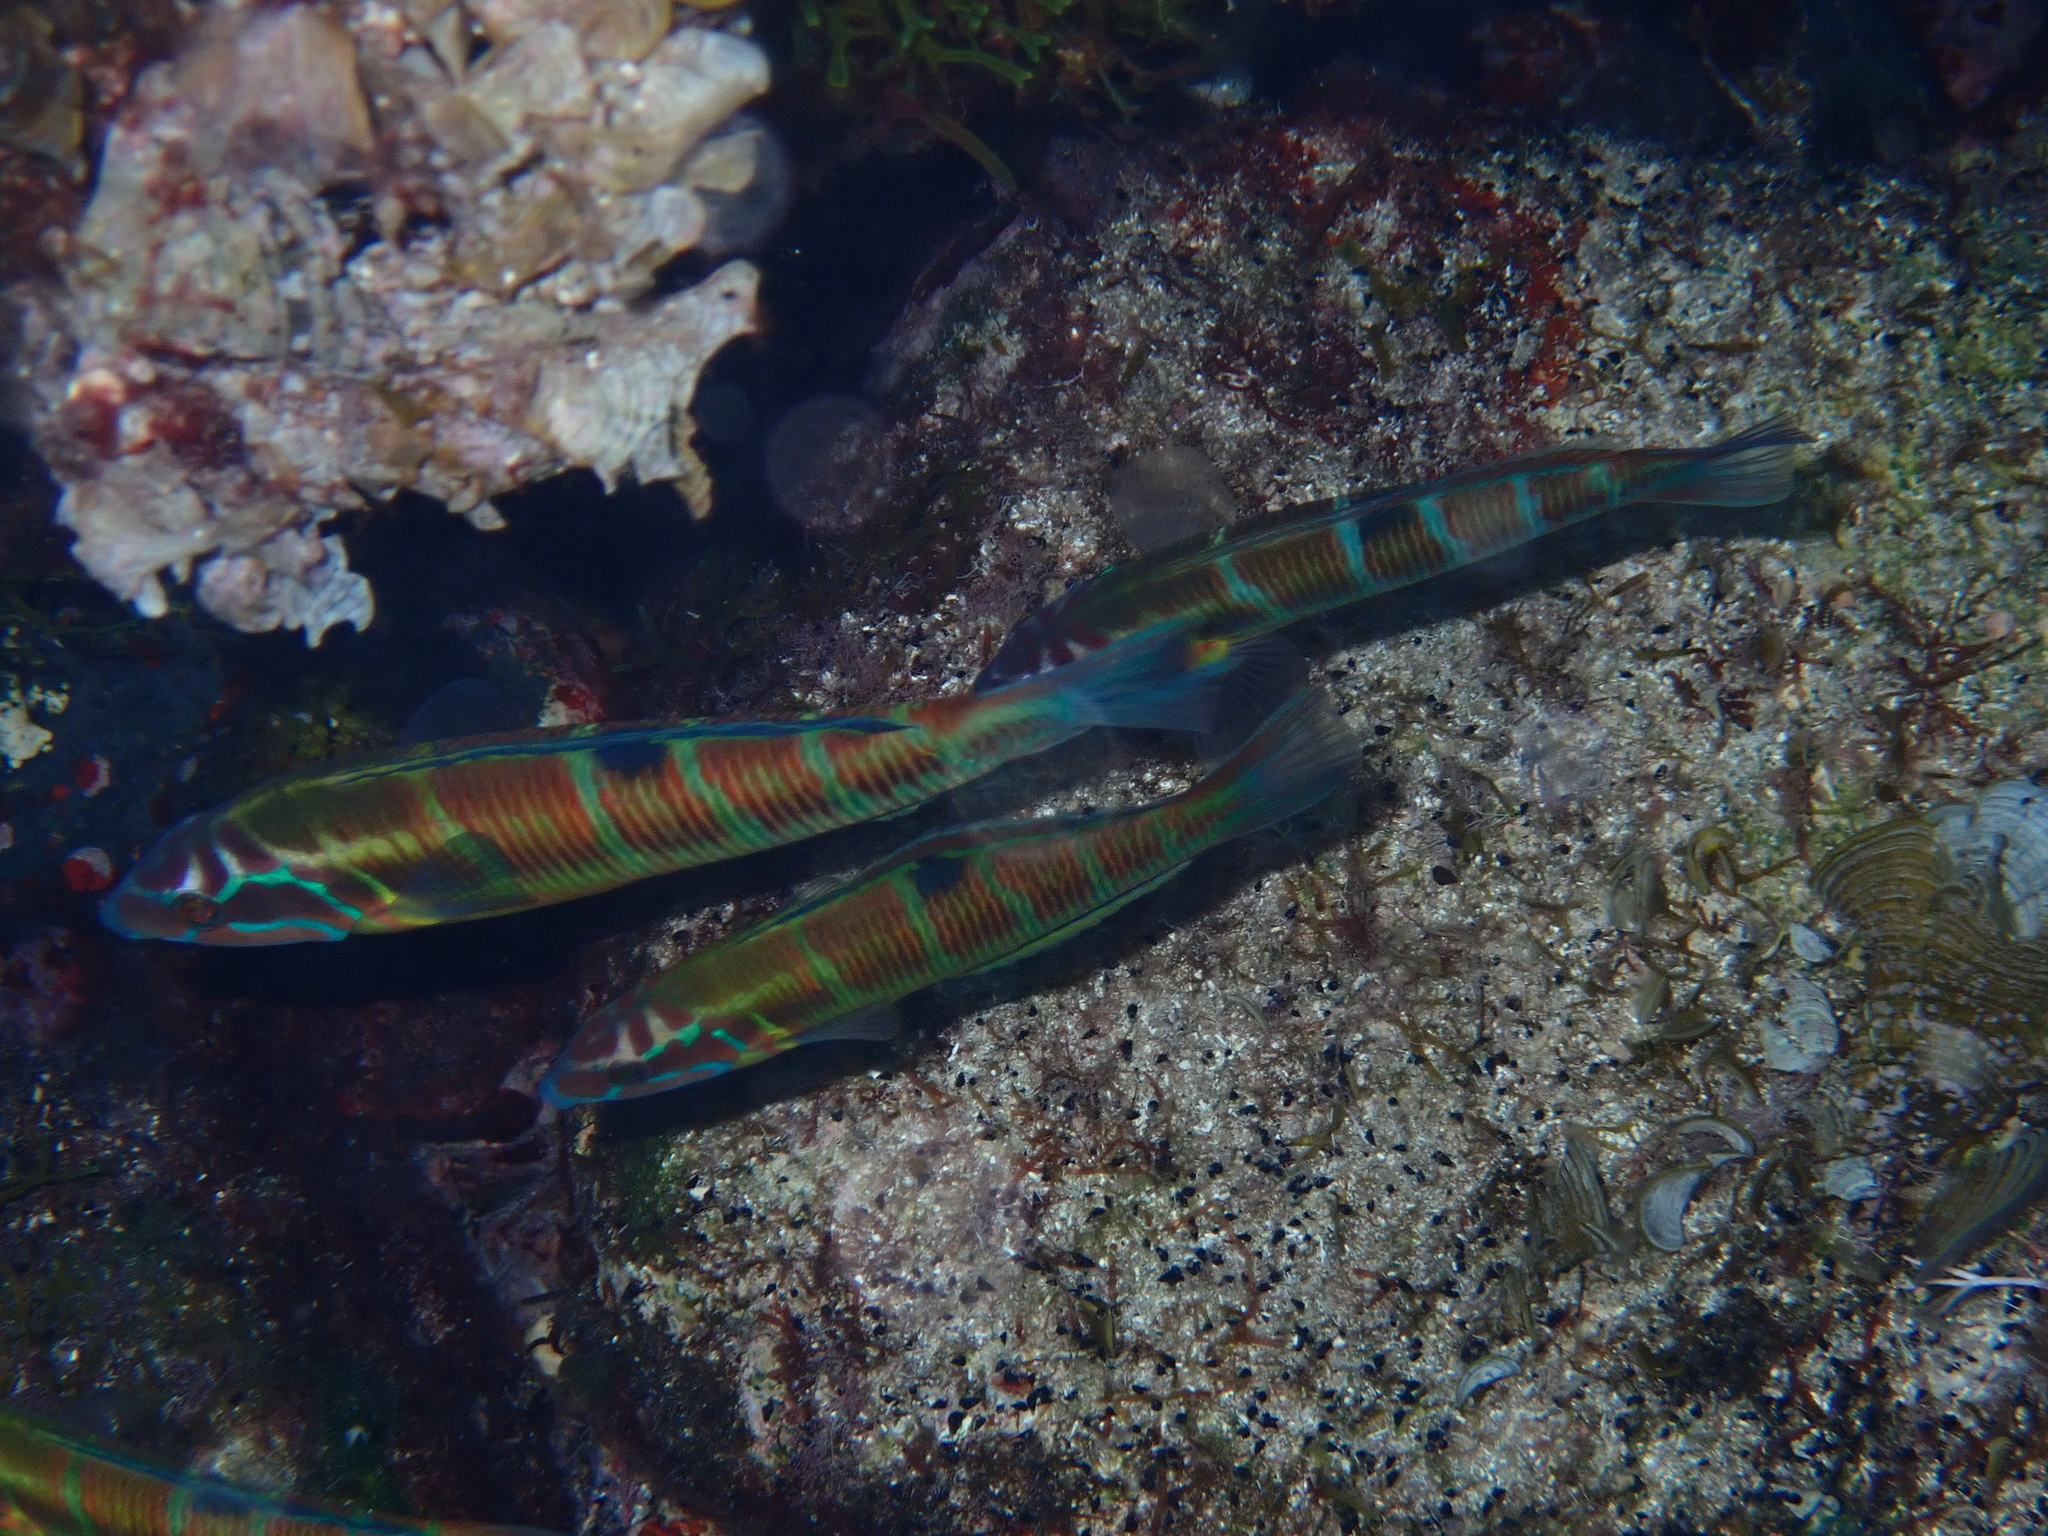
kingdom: Animalia
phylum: Chordata
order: Perciformes
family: Labridae
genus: Thalassoma
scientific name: Thalassoma pavo
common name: Ornate wrasse
